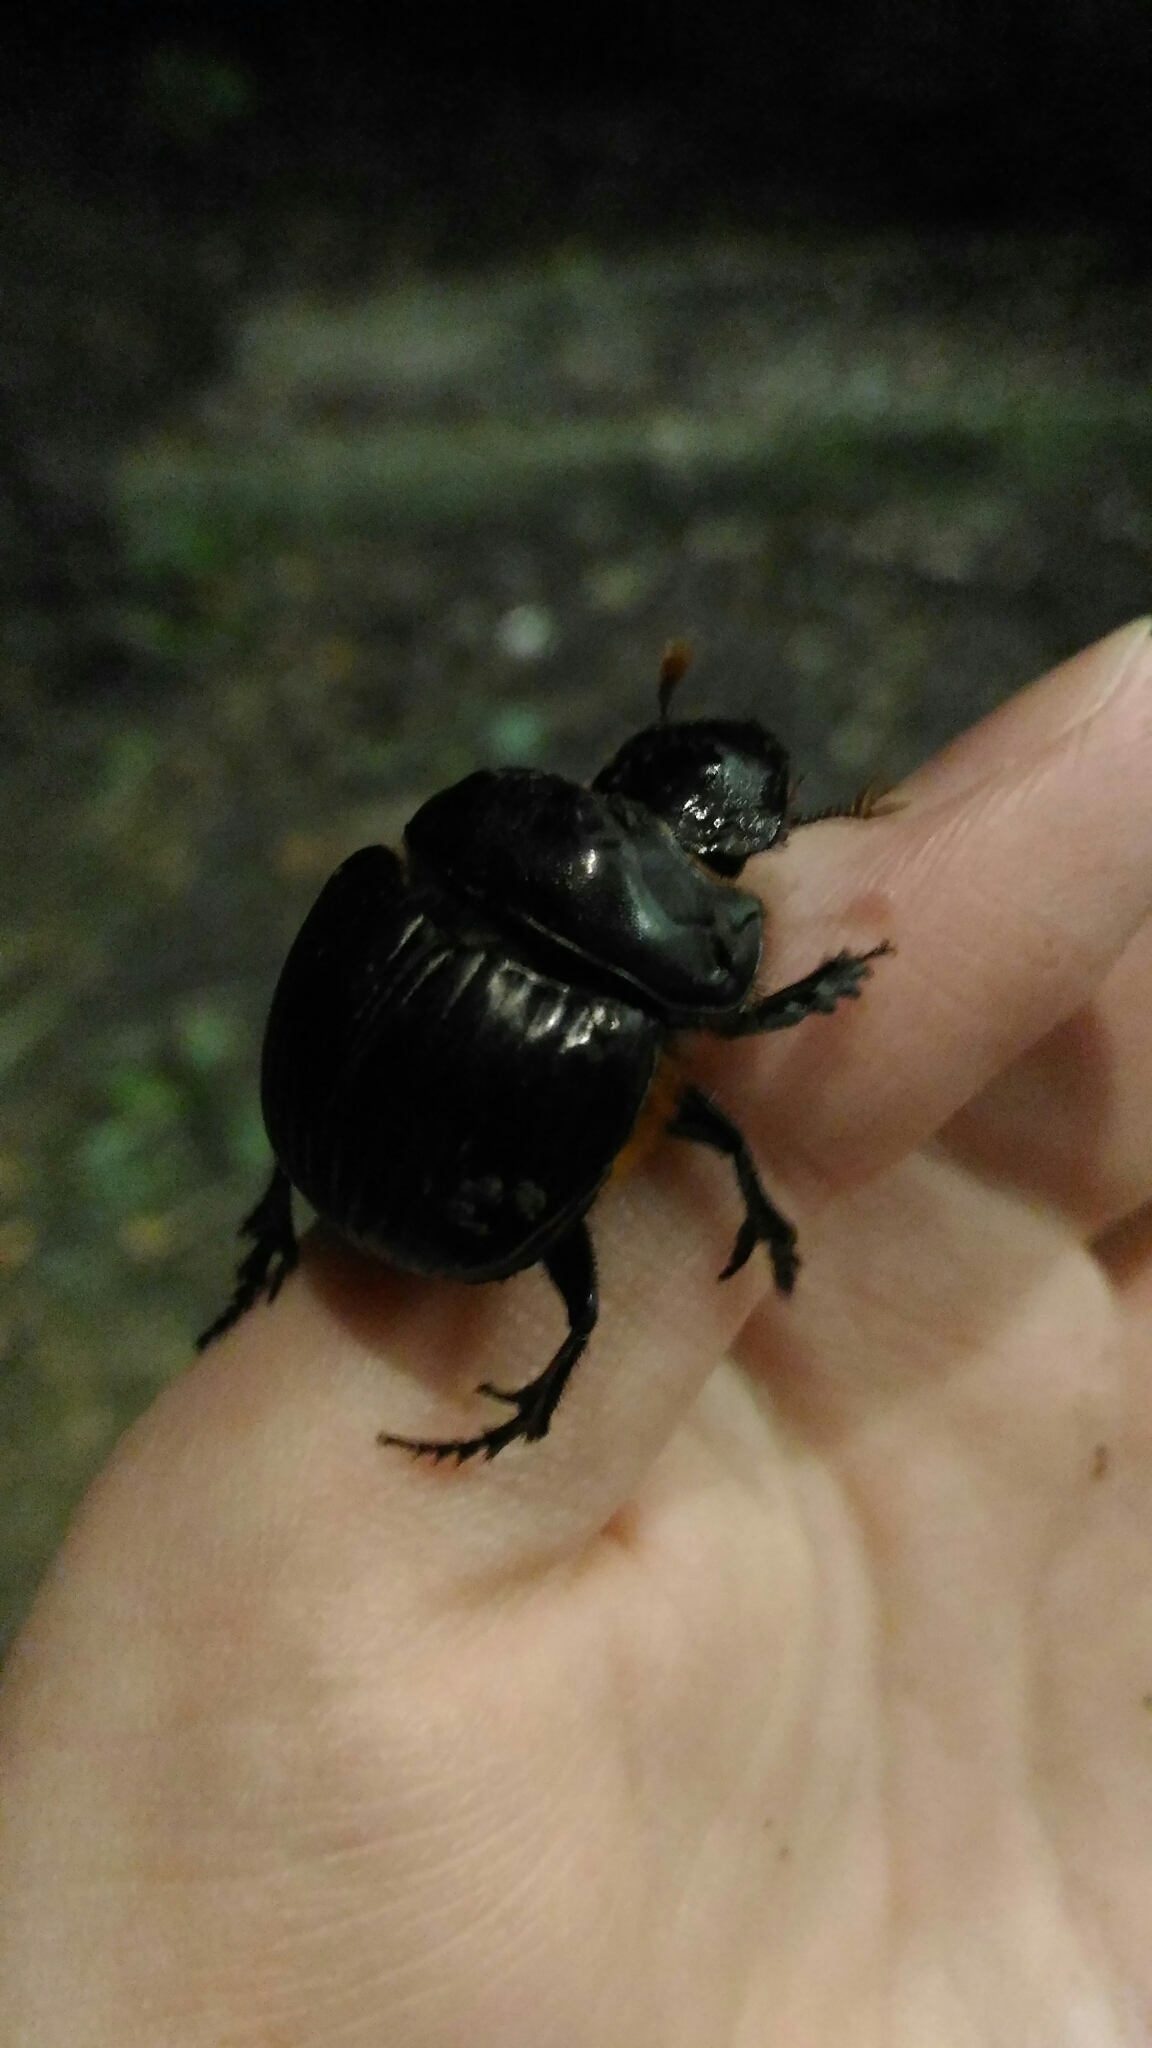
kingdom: Animalia
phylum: Arthropoda
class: Insecta
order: Coleoptera
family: Scarabaeidae
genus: Dichotomius
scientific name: Dichotomius carolinus
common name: Carolina copris
